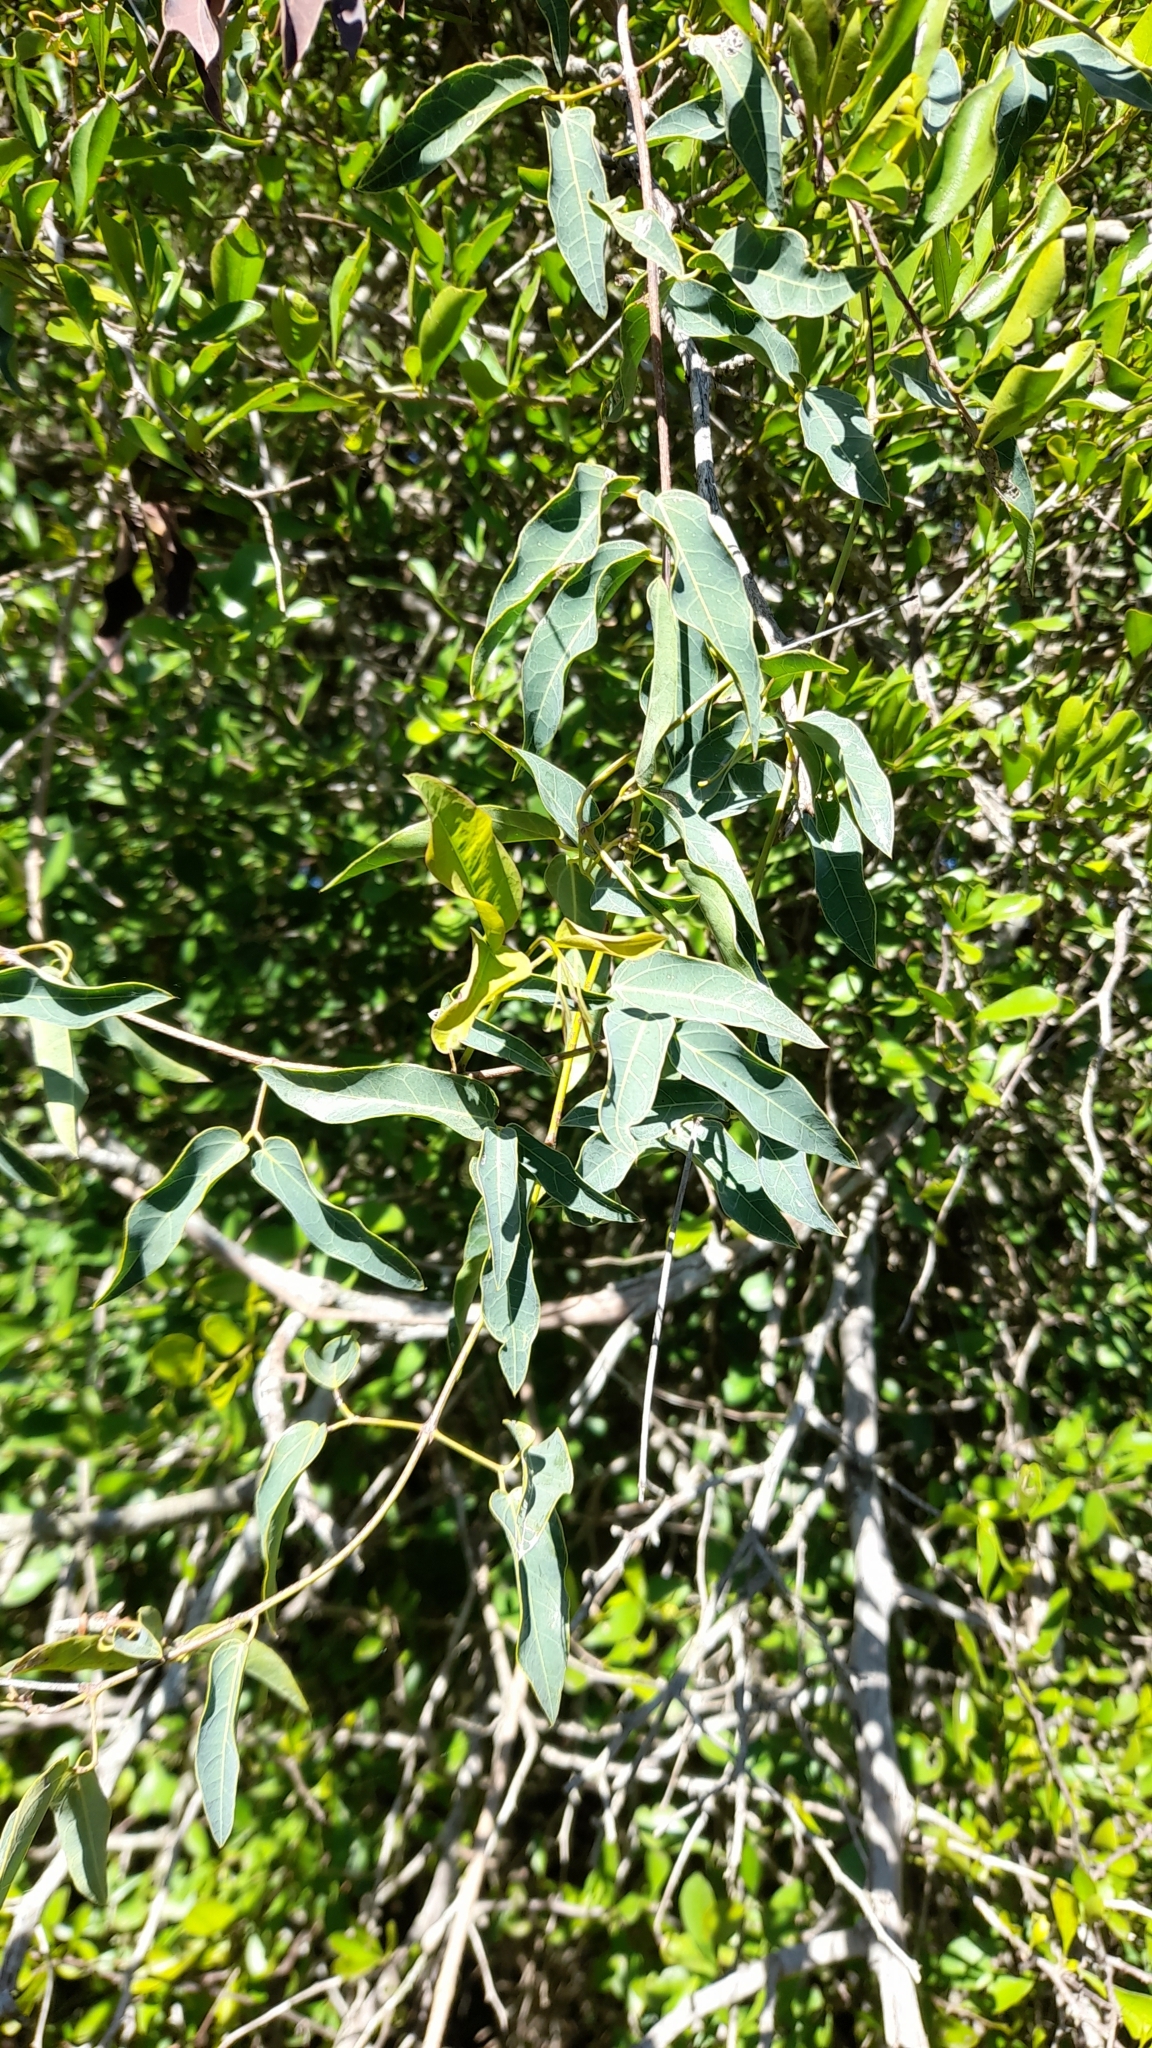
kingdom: Plantae
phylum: Tracheophyta
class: Magnoliopsida
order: Lamiales
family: Bignoniaceae
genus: Dolichandra
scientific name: Dolichandra cynanchoides
